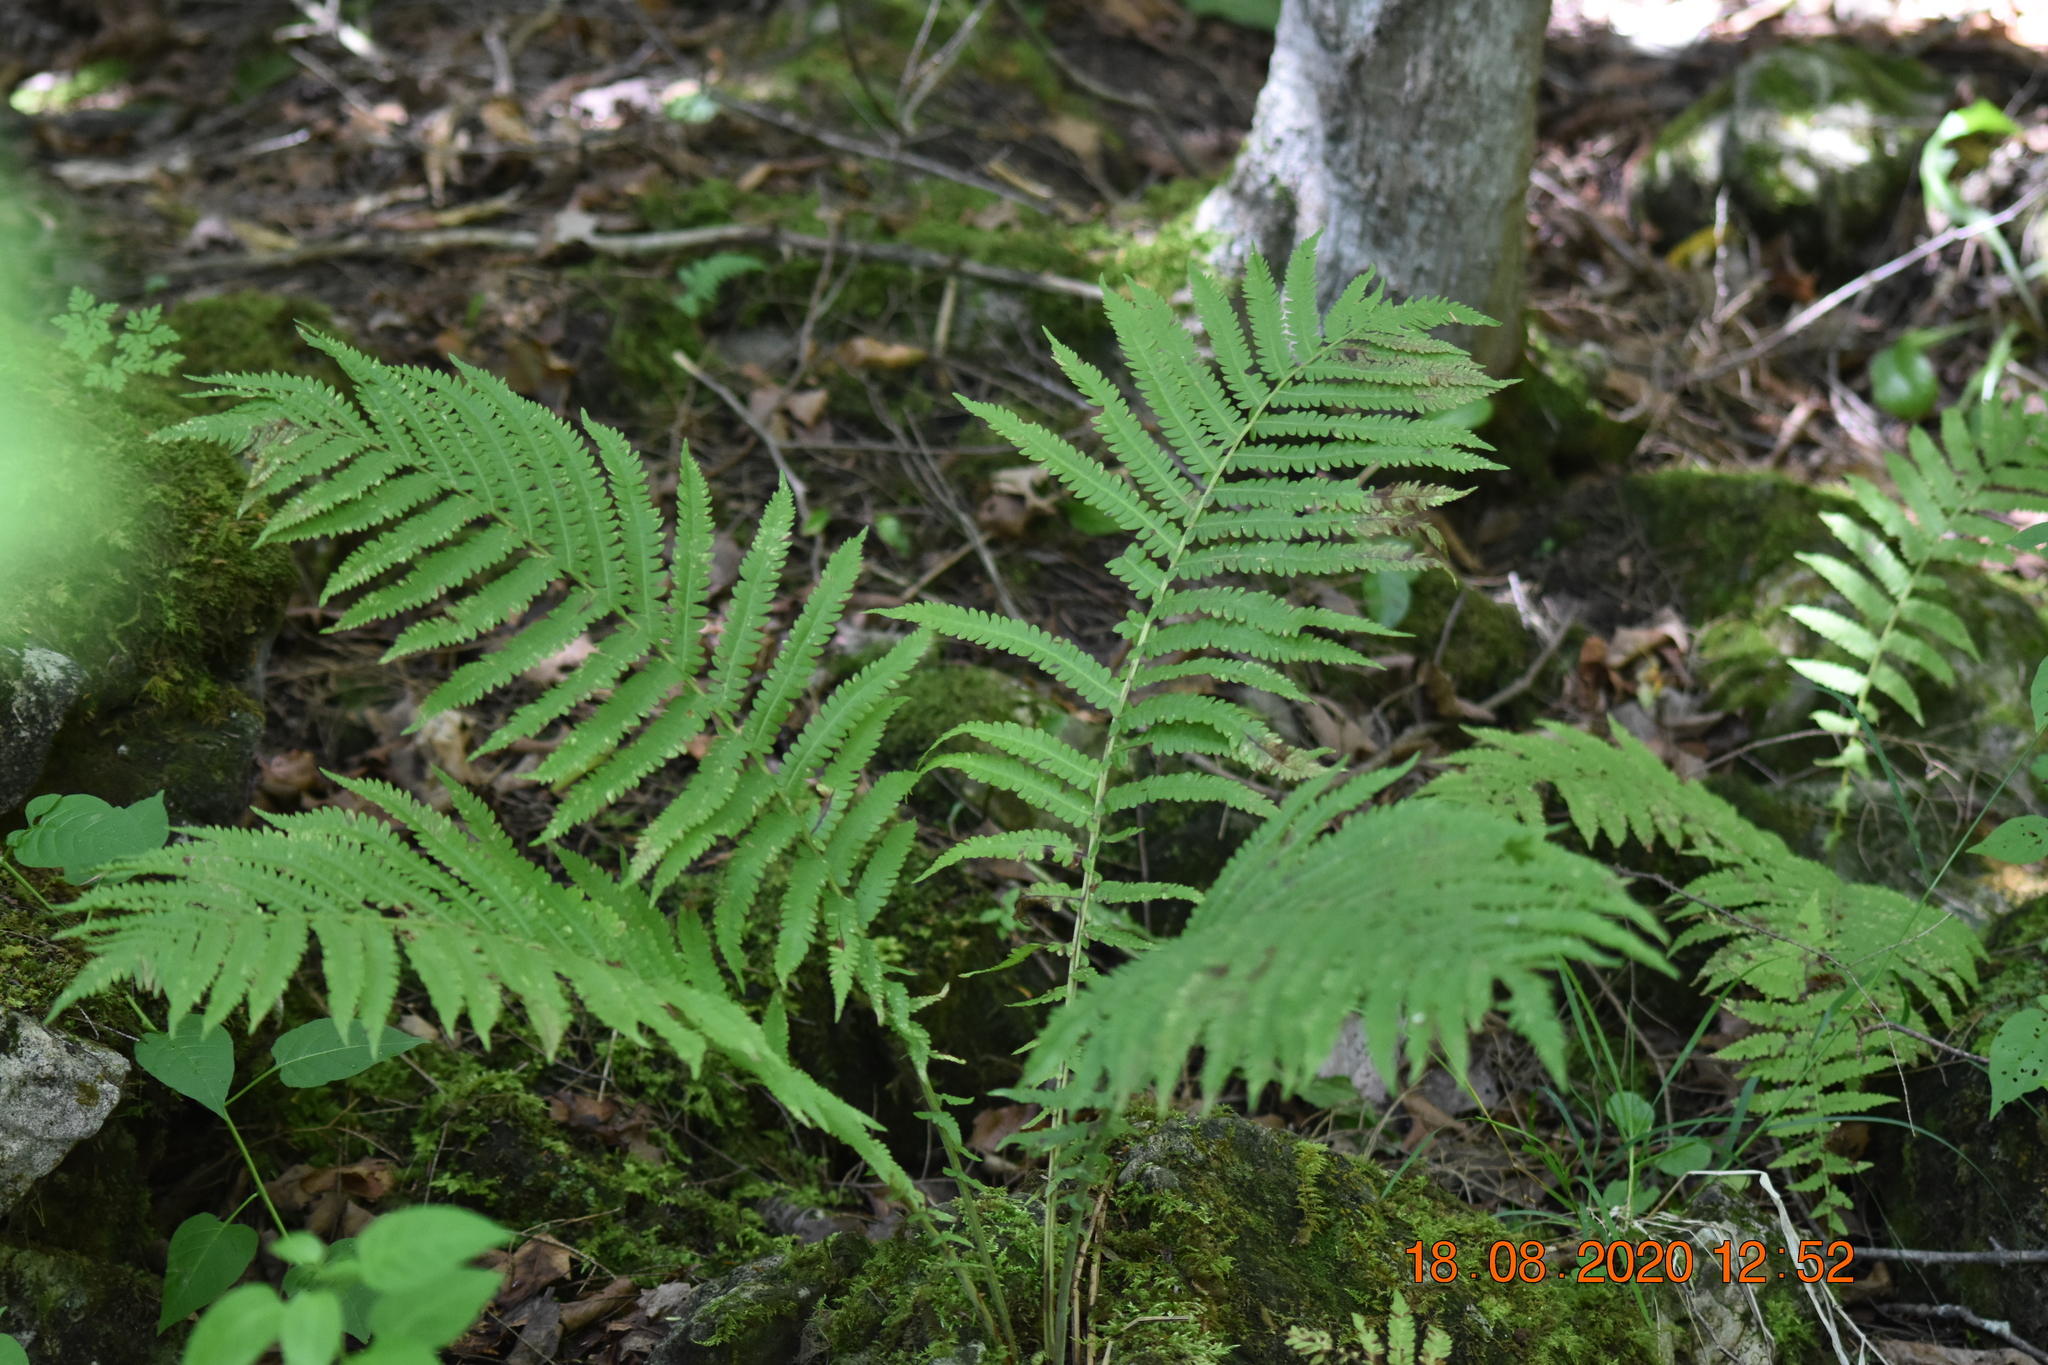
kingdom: Plantae
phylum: Tracheophyta
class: Polypodiopsida
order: Polypodiales
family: Onocleaceae
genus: Matteuccia
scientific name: Matteuccia struthiopteris
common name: Ostrich fern
